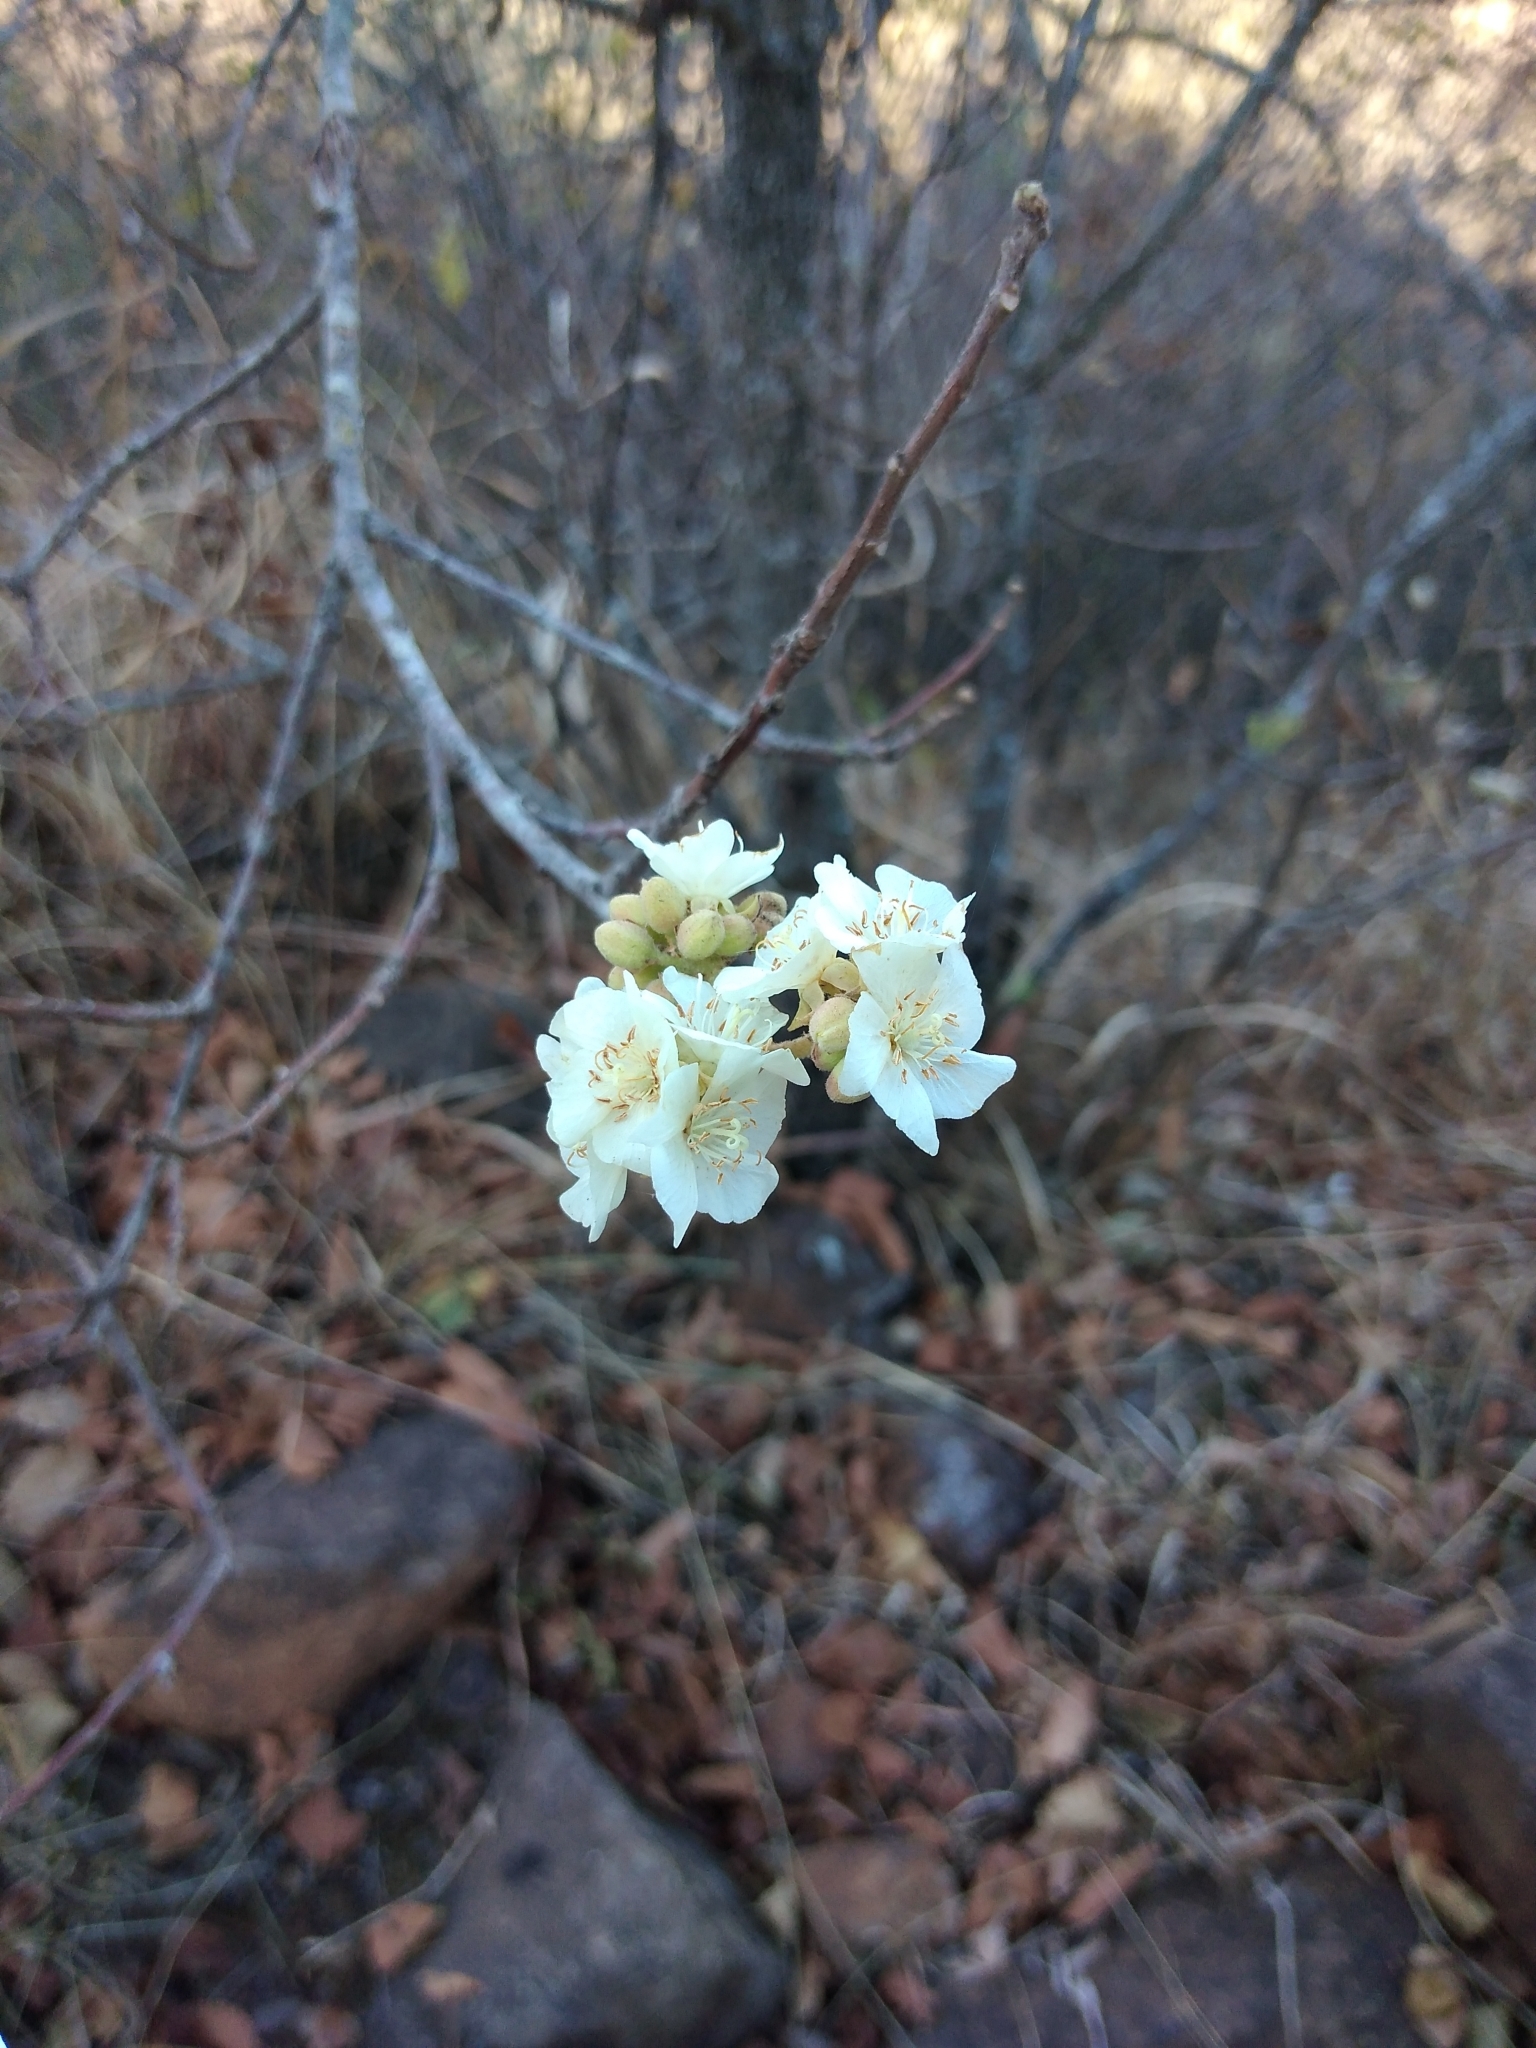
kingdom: Plantae
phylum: Tracheophyta
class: Magnoliopsida
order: Malvales
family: Malvaceae
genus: Dombeya
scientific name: Dombeya rotundifolia
